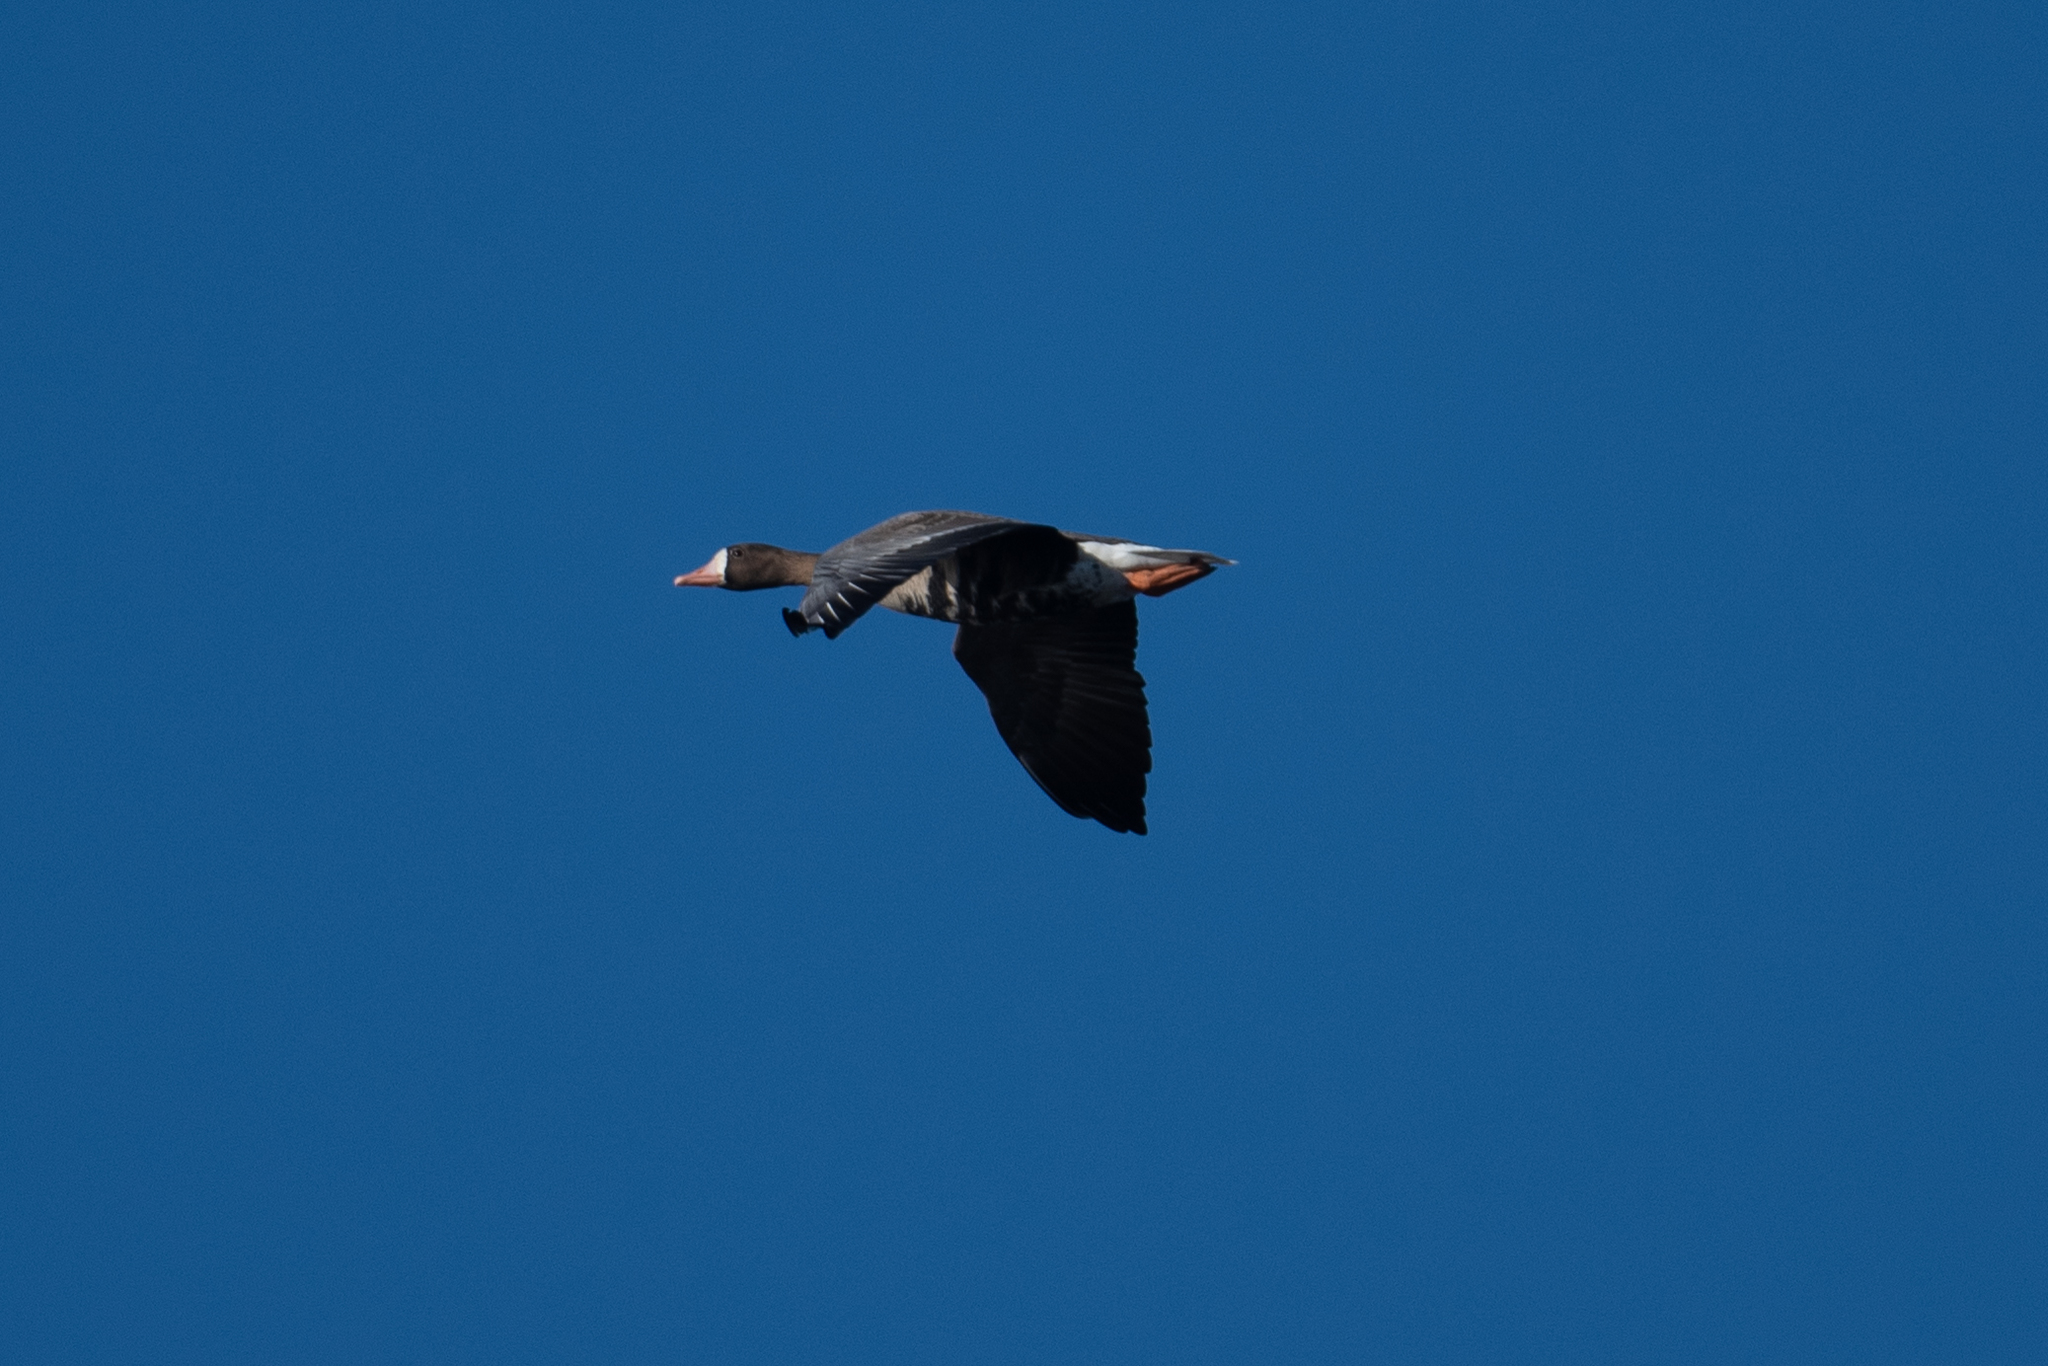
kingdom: Animalia
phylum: Chordata
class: Aves
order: Anseriformes
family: Anatidae
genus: Anser
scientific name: Anser albifrons
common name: Greater white-fronted goose
